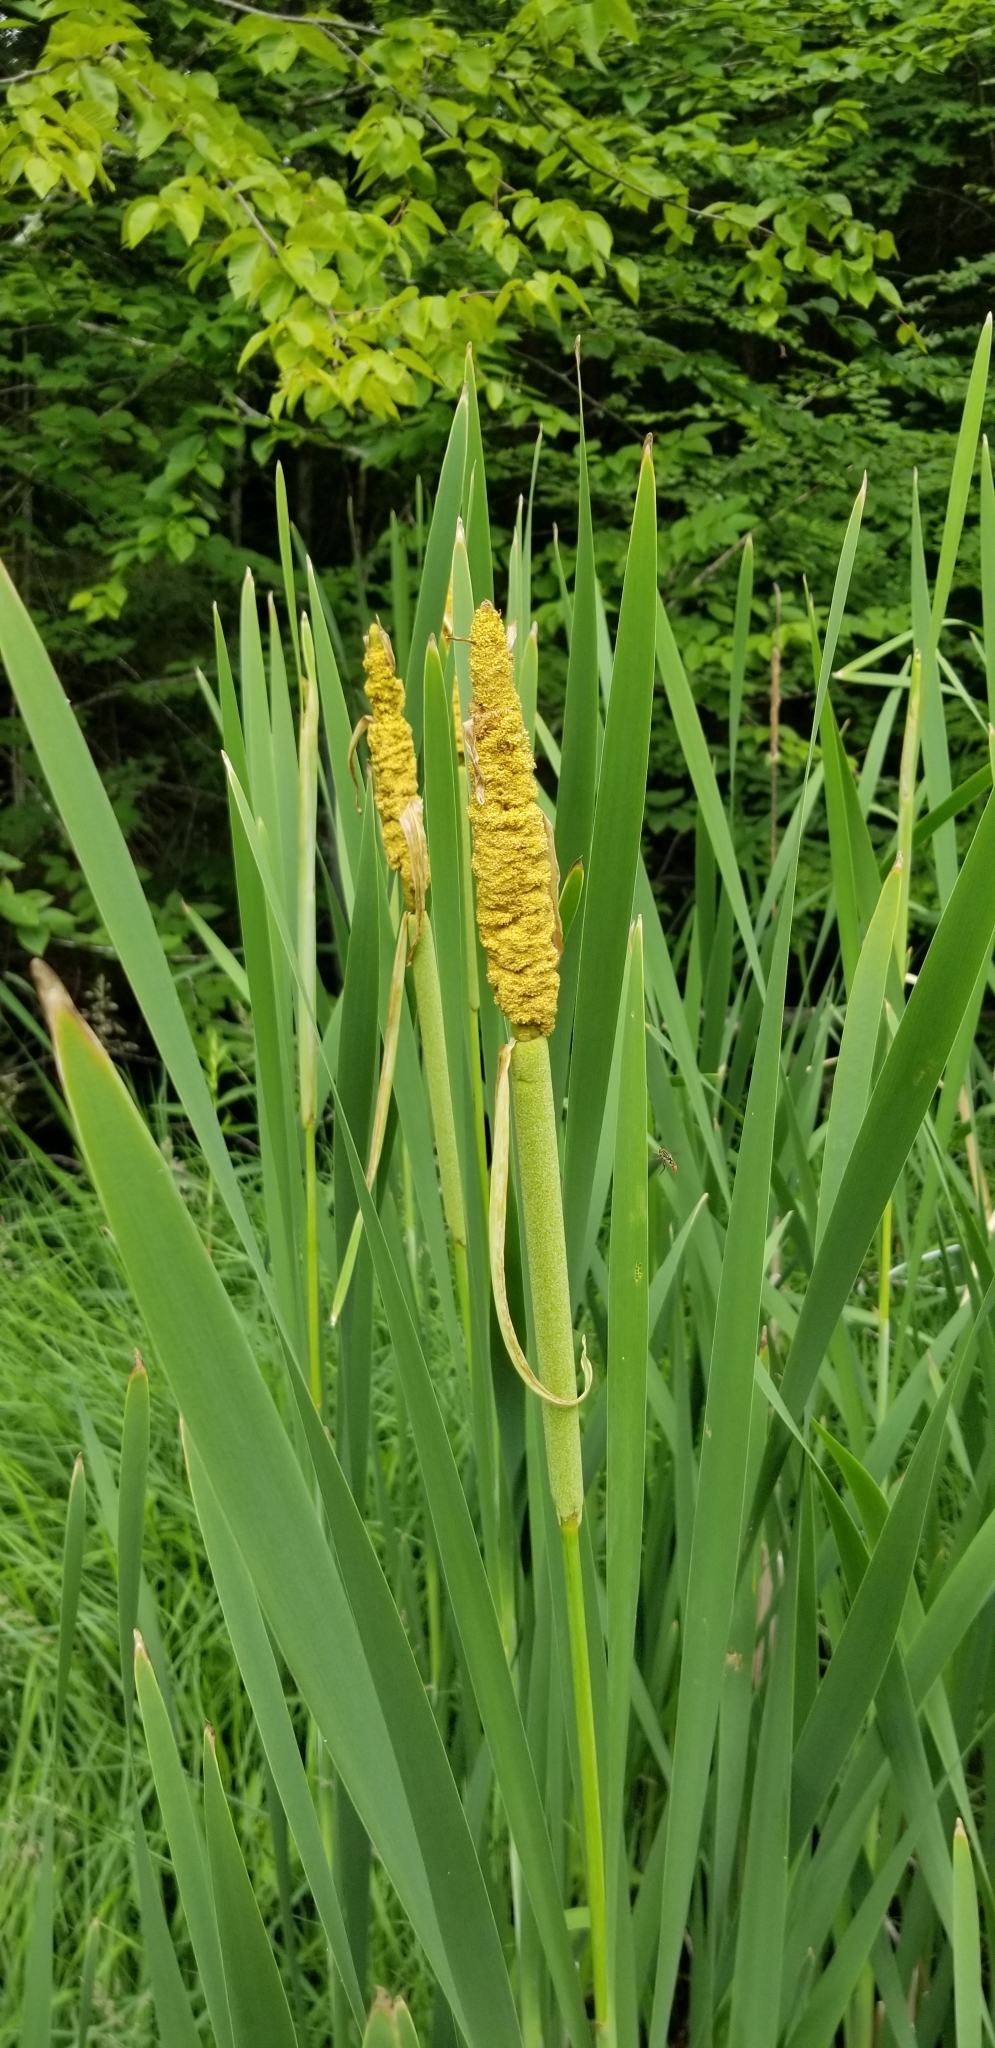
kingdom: Plantae
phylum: Tracheophyta
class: Liliopsida
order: Poales
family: Typhaceae
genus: Typha
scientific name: Typha latifolia
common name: Broadleaf cattail
